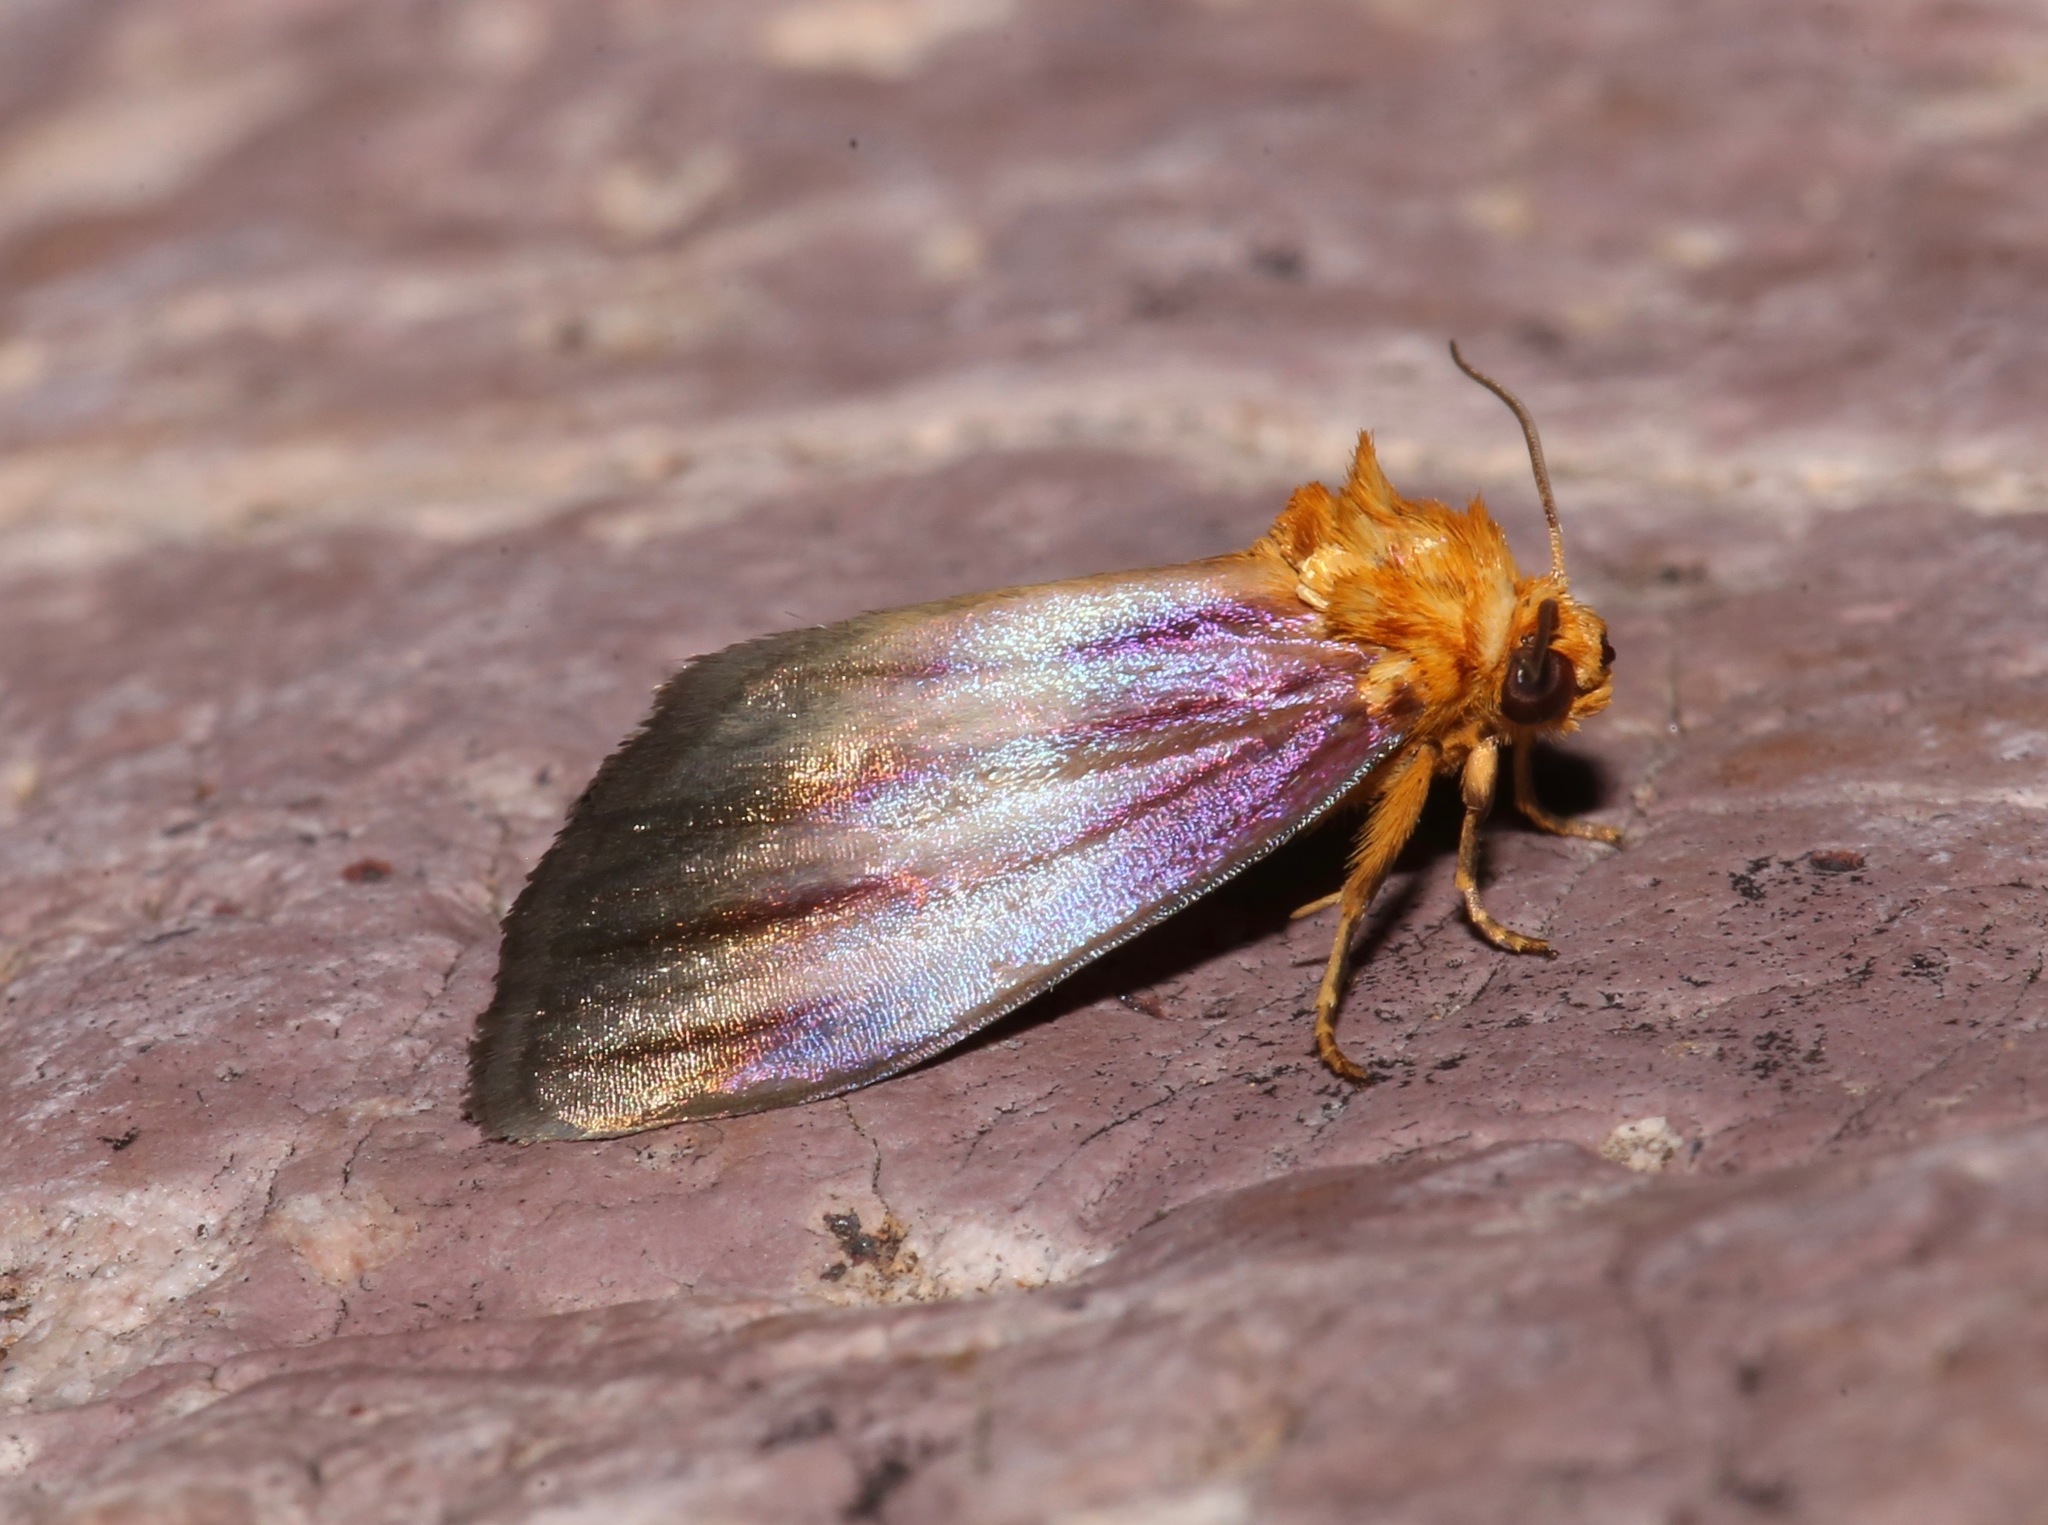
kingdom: Animalia
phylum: Arthropoda
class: Insecta
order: Lepidoptera
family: Noctuidae
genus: Antaplaga
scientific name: Antaplaga plesioglauca
